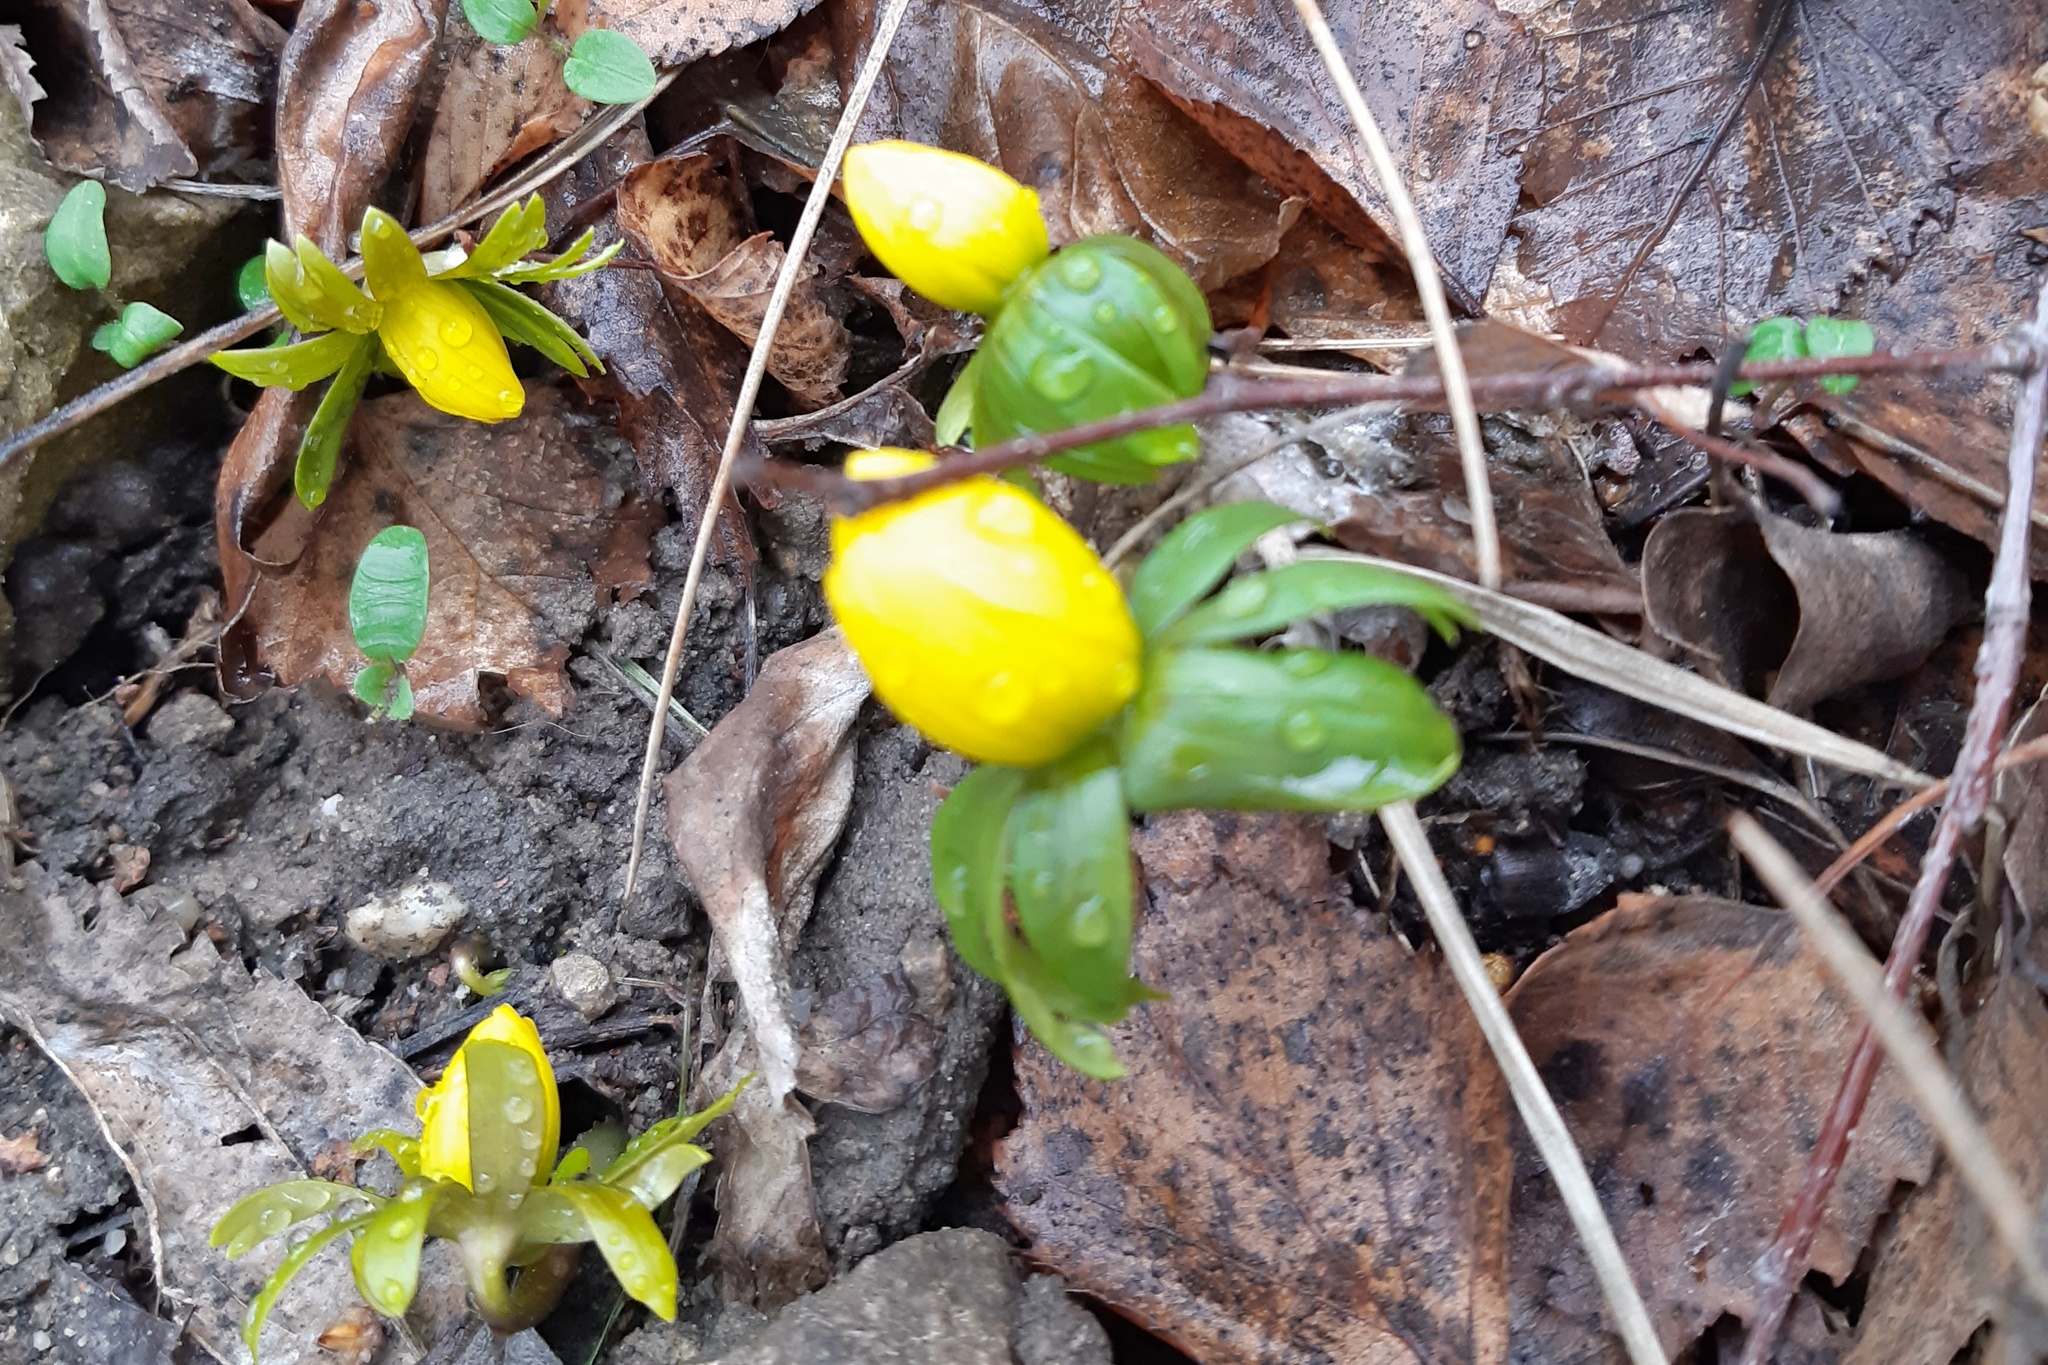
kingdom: Plantae
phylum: Tracheophyta
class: Magnoliopsida
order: Ranunculales
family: Ranunculaceae
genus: Eranthis
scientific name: Eranthis hyemalis
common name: Winter aconite
